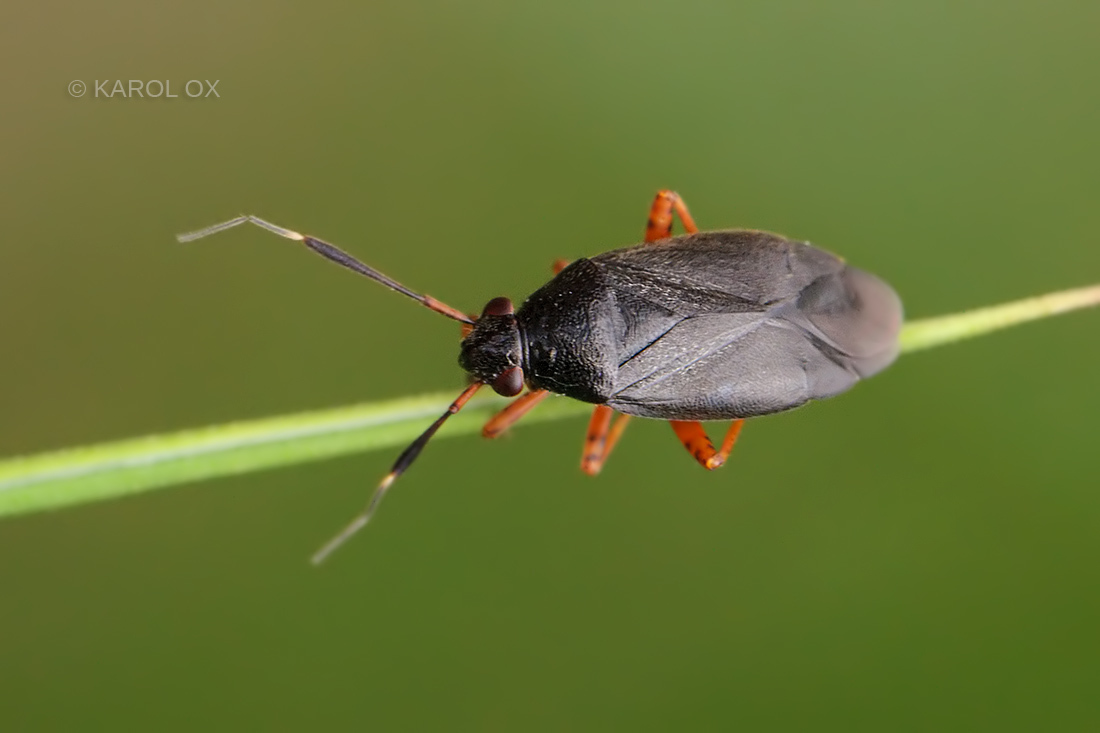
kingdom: Animalia
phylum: Arthropoda
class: Insecta
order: Hemiptera
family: Miridae
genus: Capsus
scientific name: Capsus ater
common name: Black plant bug
